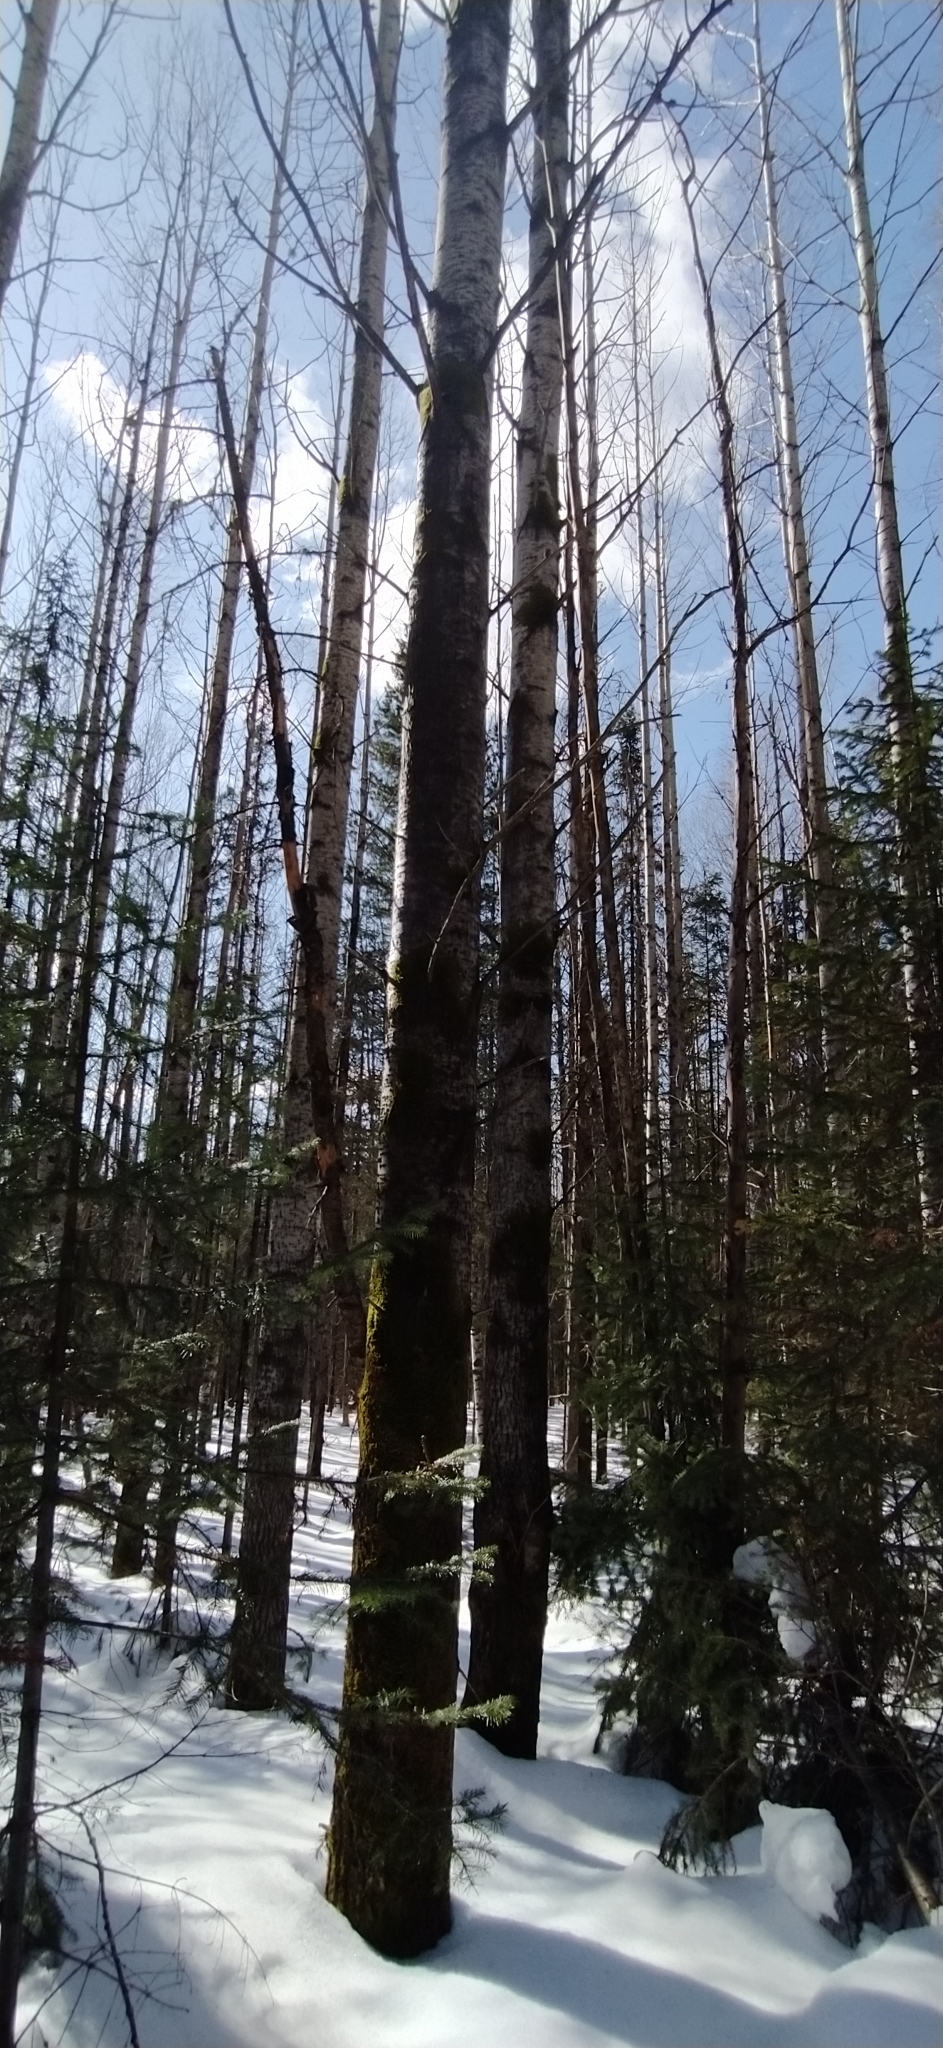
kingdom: Plantae
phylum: Tracheophyta
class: Magnoliopsida
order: Malpighiales
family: Salicaceae
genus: Populus
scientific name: Populus tremula
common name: European aspen
